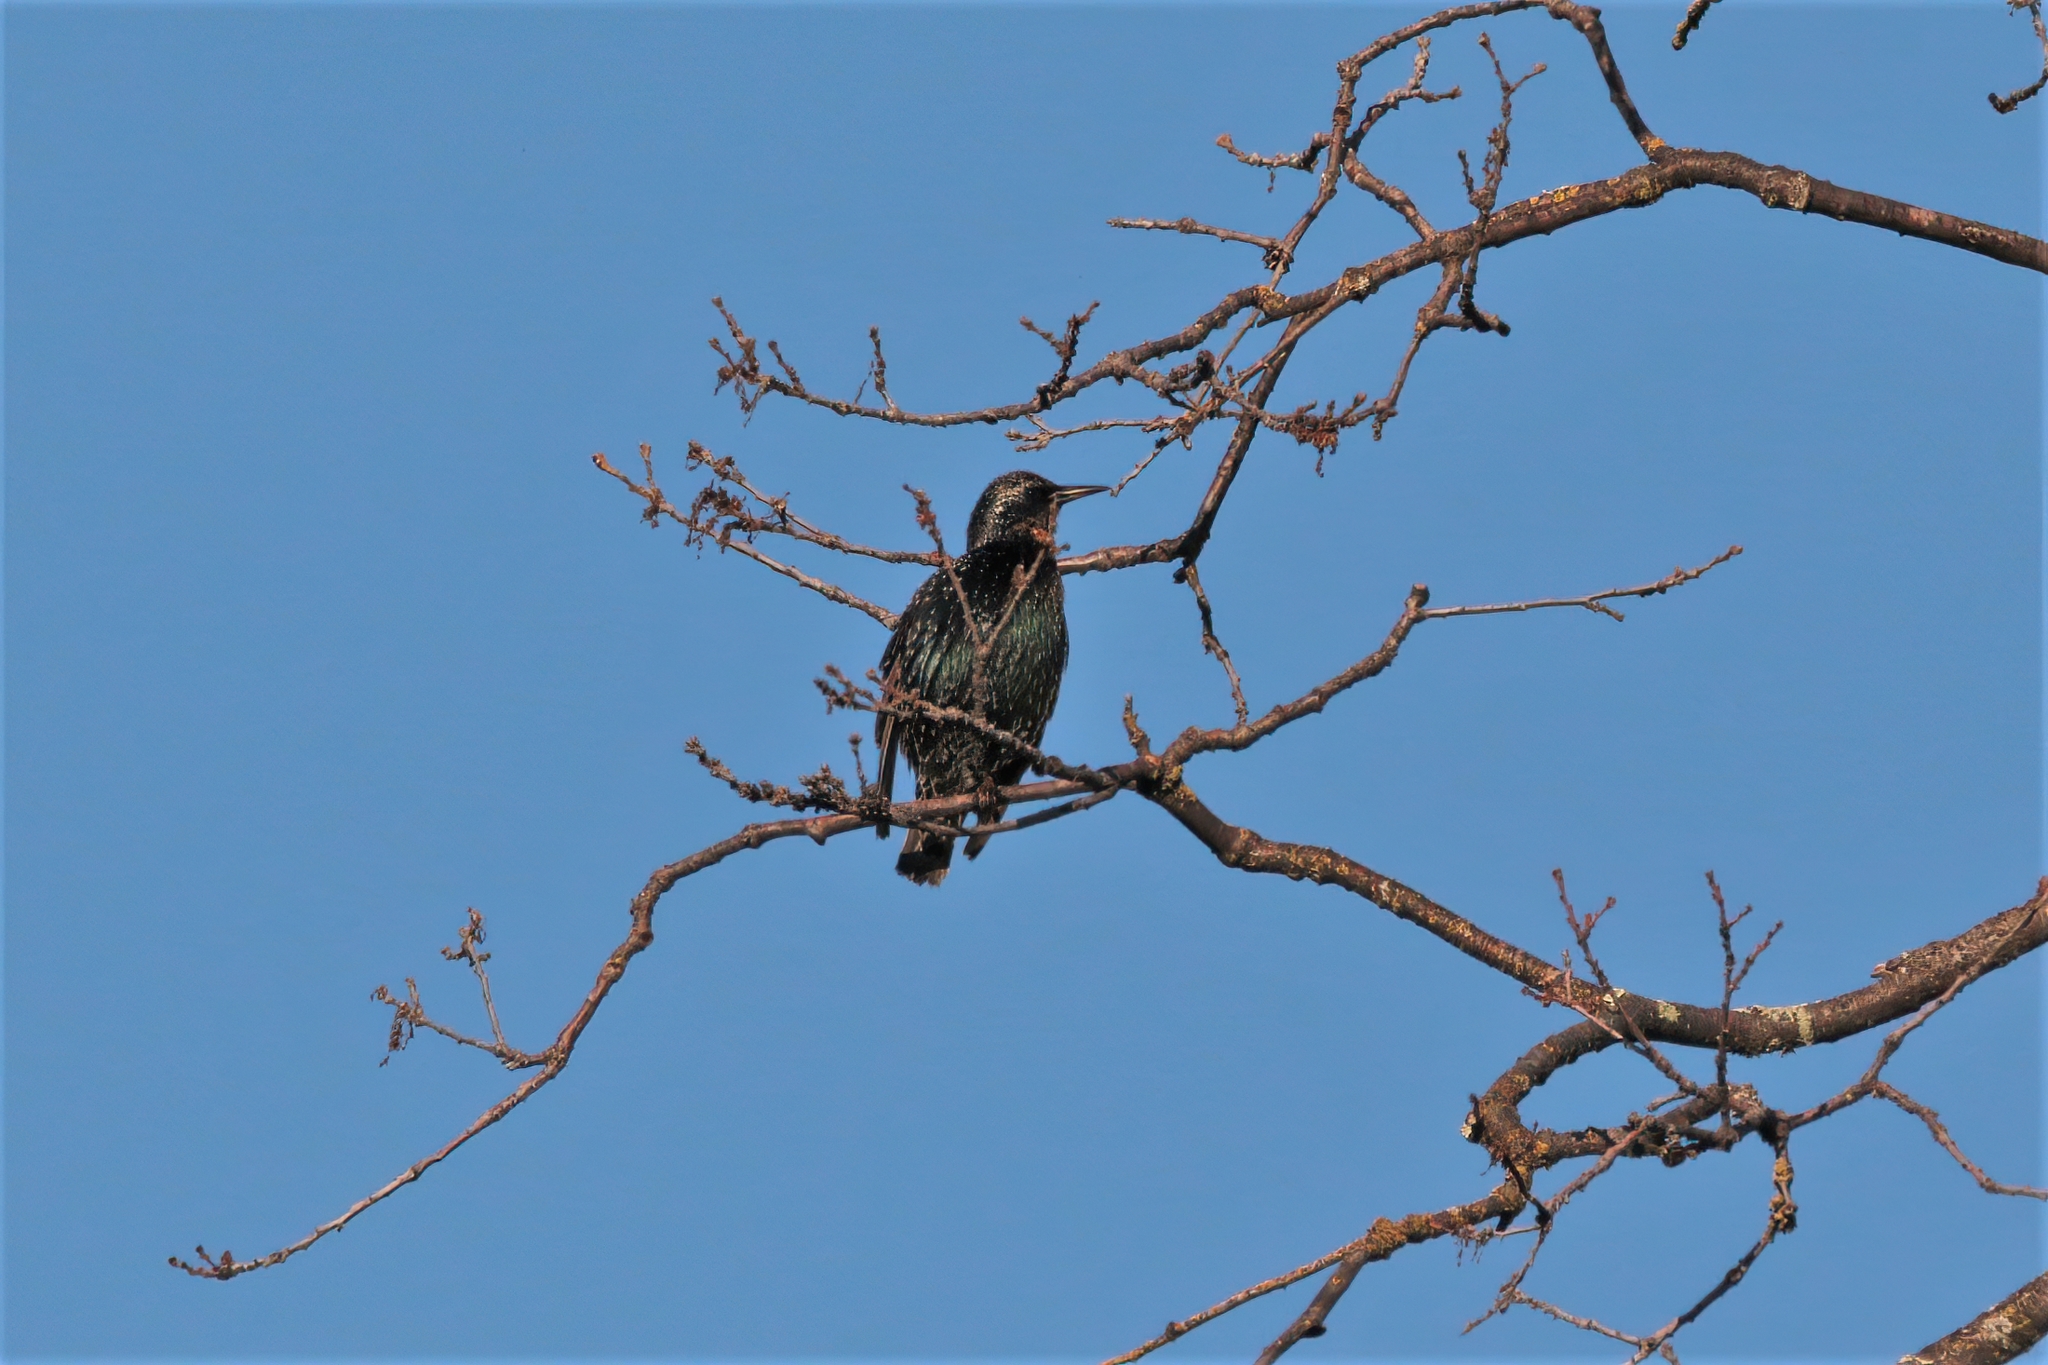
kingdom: Animalia
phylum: Chordata
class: Aves
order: Passeriformes
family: Sturnidae
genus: Sturnus
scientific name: Sturnus vulgaris
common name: Common starling
